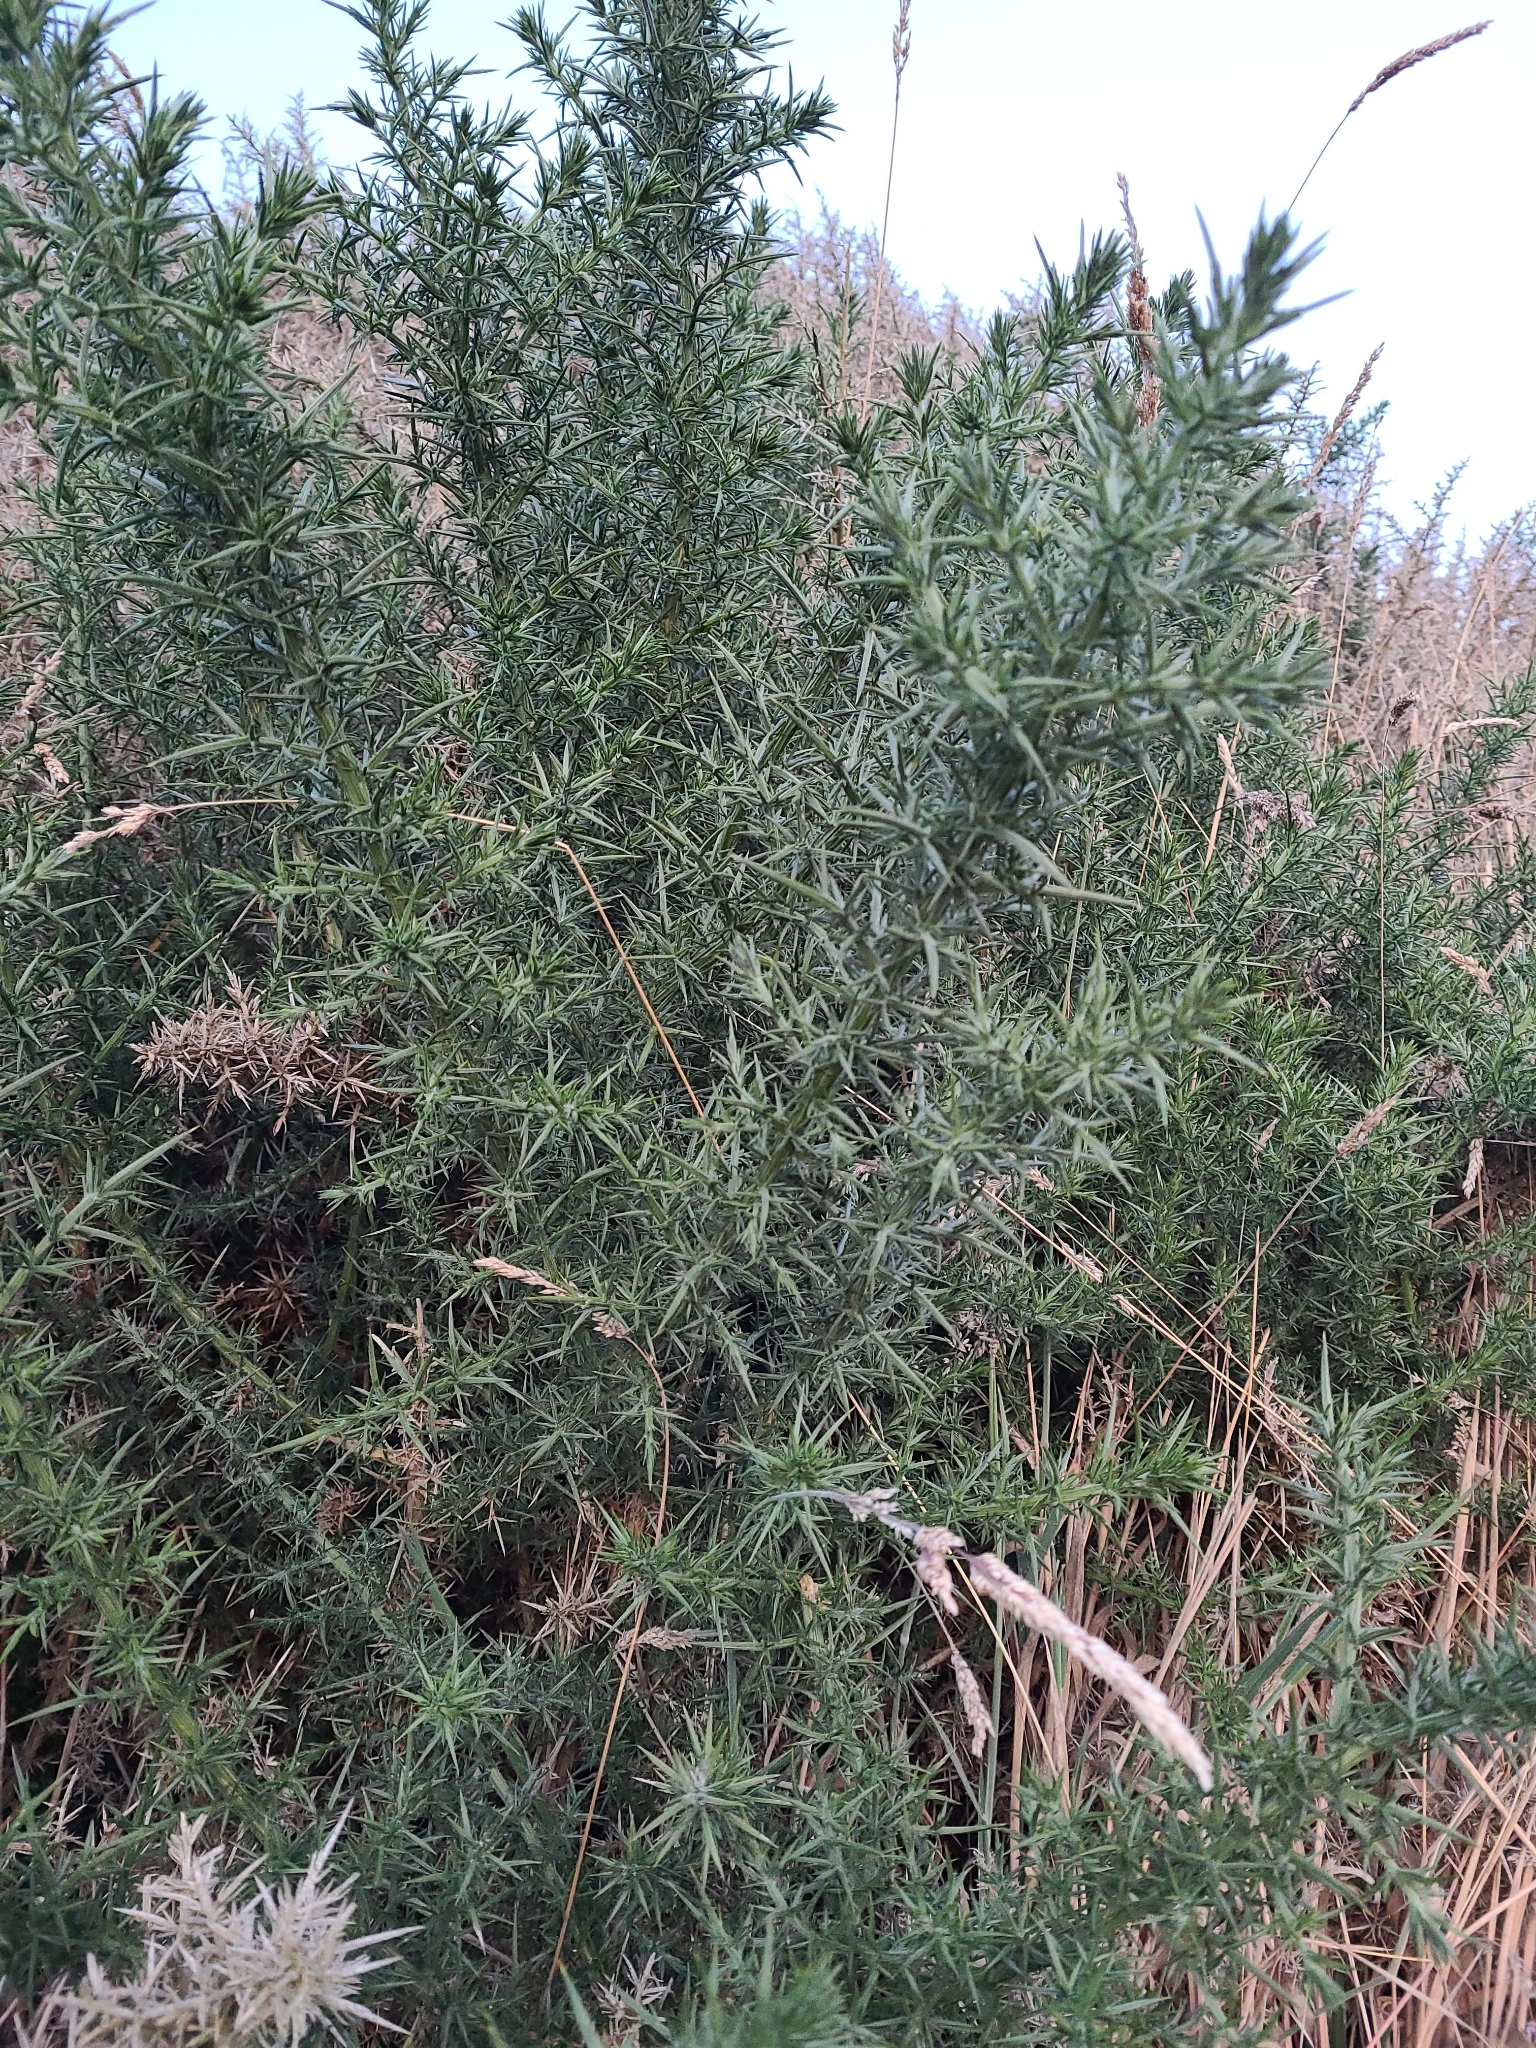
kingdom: Plantae
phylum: Tracheophyta
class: Magnoliopsida
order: Fabales
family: Fabaceae
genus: Ulex
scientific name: Ulex europaeus
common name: Common gorse
